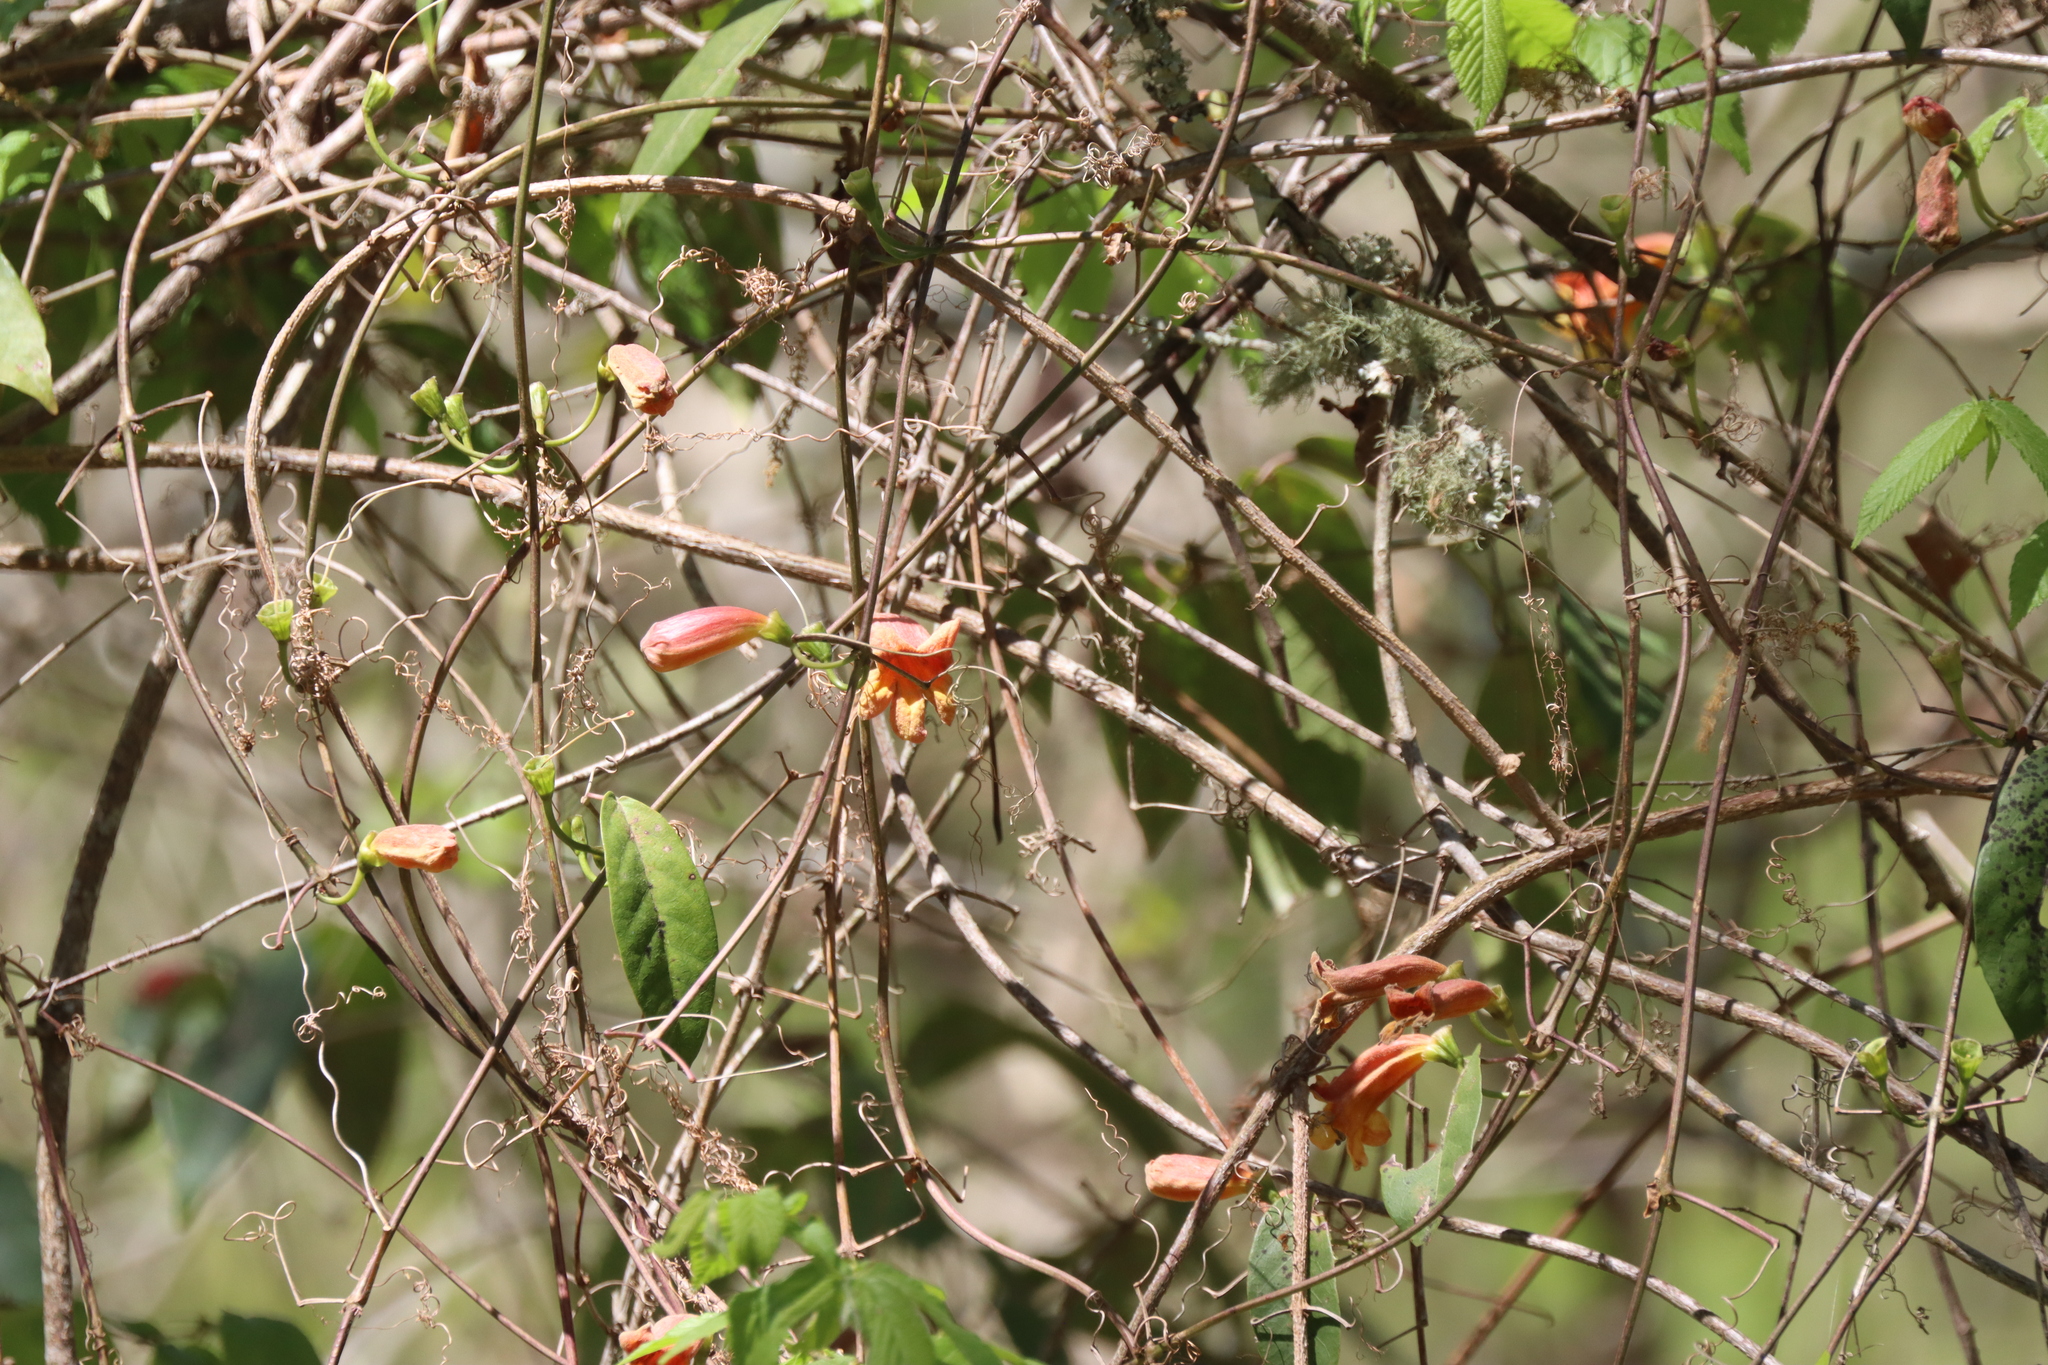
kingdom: Plantae
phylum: Tracheophyta
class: Magnoliopsida
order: Lamiales
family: Bignoniaceae
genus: Bignonia
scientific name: Bignonia capreolata
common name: Crossvine
